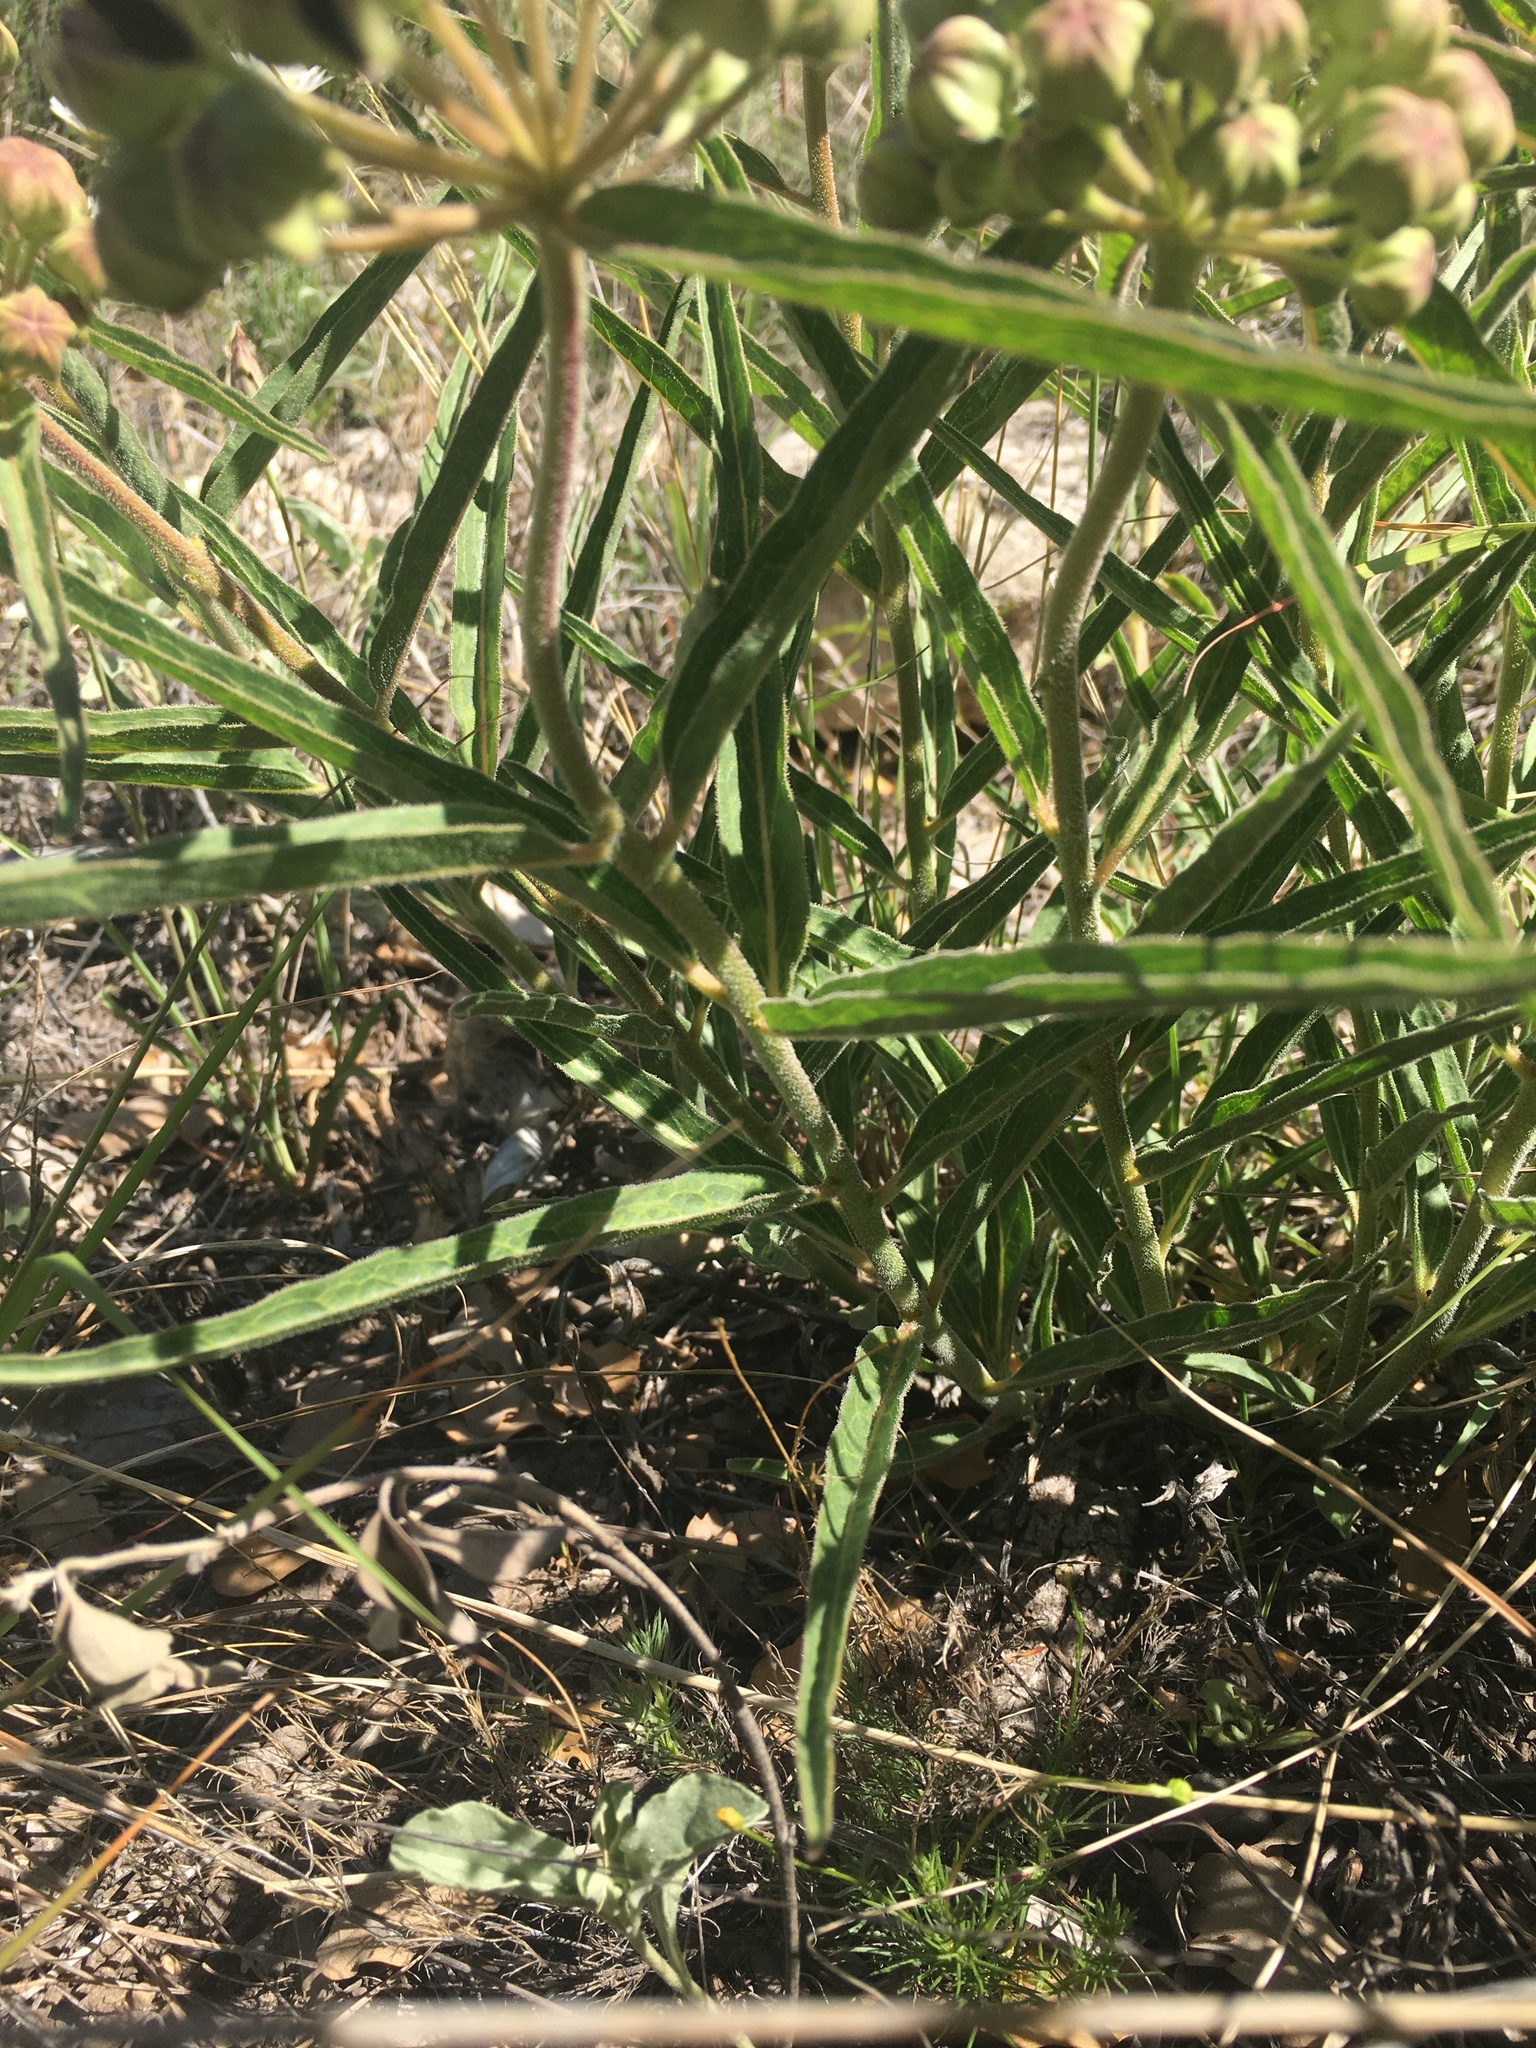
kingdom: Plantae
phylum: Tracheophyta
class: Magnoliopsida
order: Gentianales
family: Apocynaceae
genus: Asclepias
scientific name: Asclepias asperula
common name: Antelope horns
